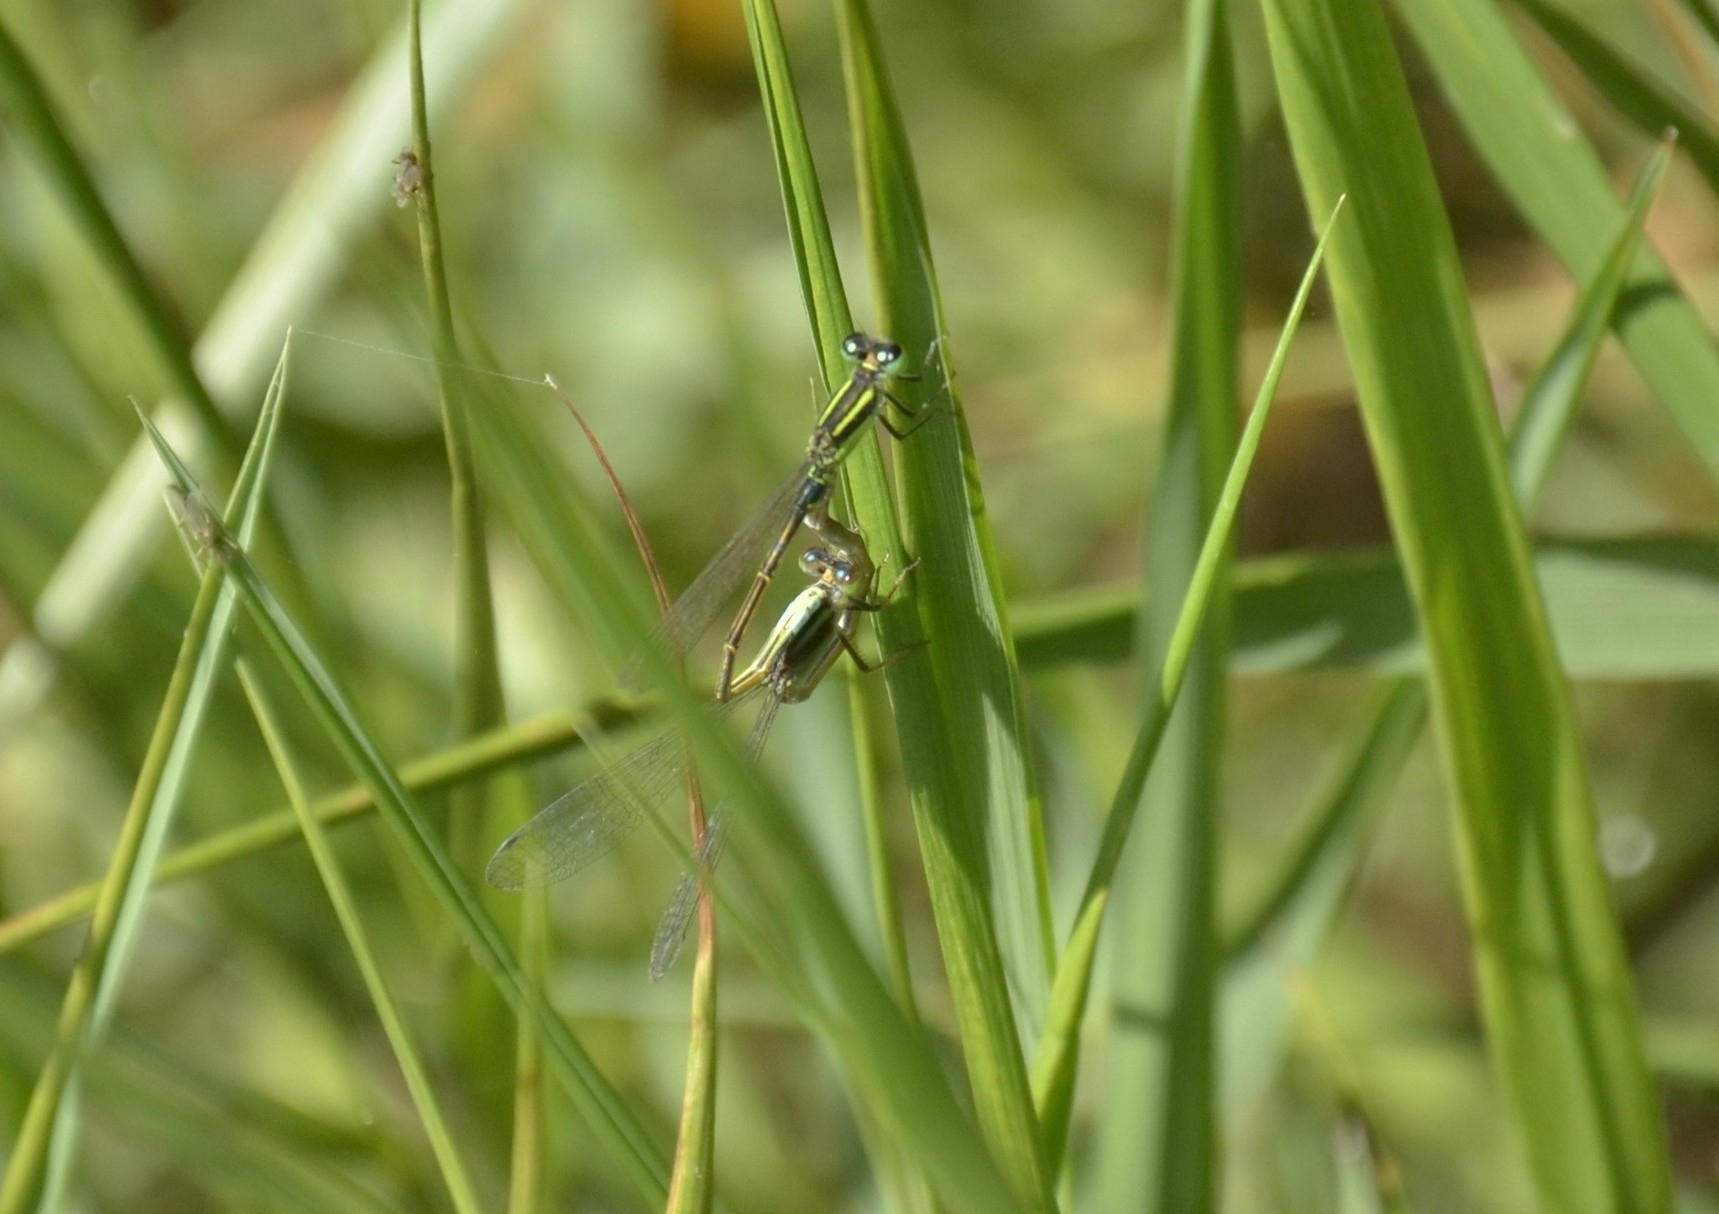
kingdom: Animalia
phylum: Arthropoda
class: Insecta
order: Odonata
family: Coenagrionidae
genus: Ischnura
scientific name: Ischnura senegalensis
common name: Tropical bluetail
